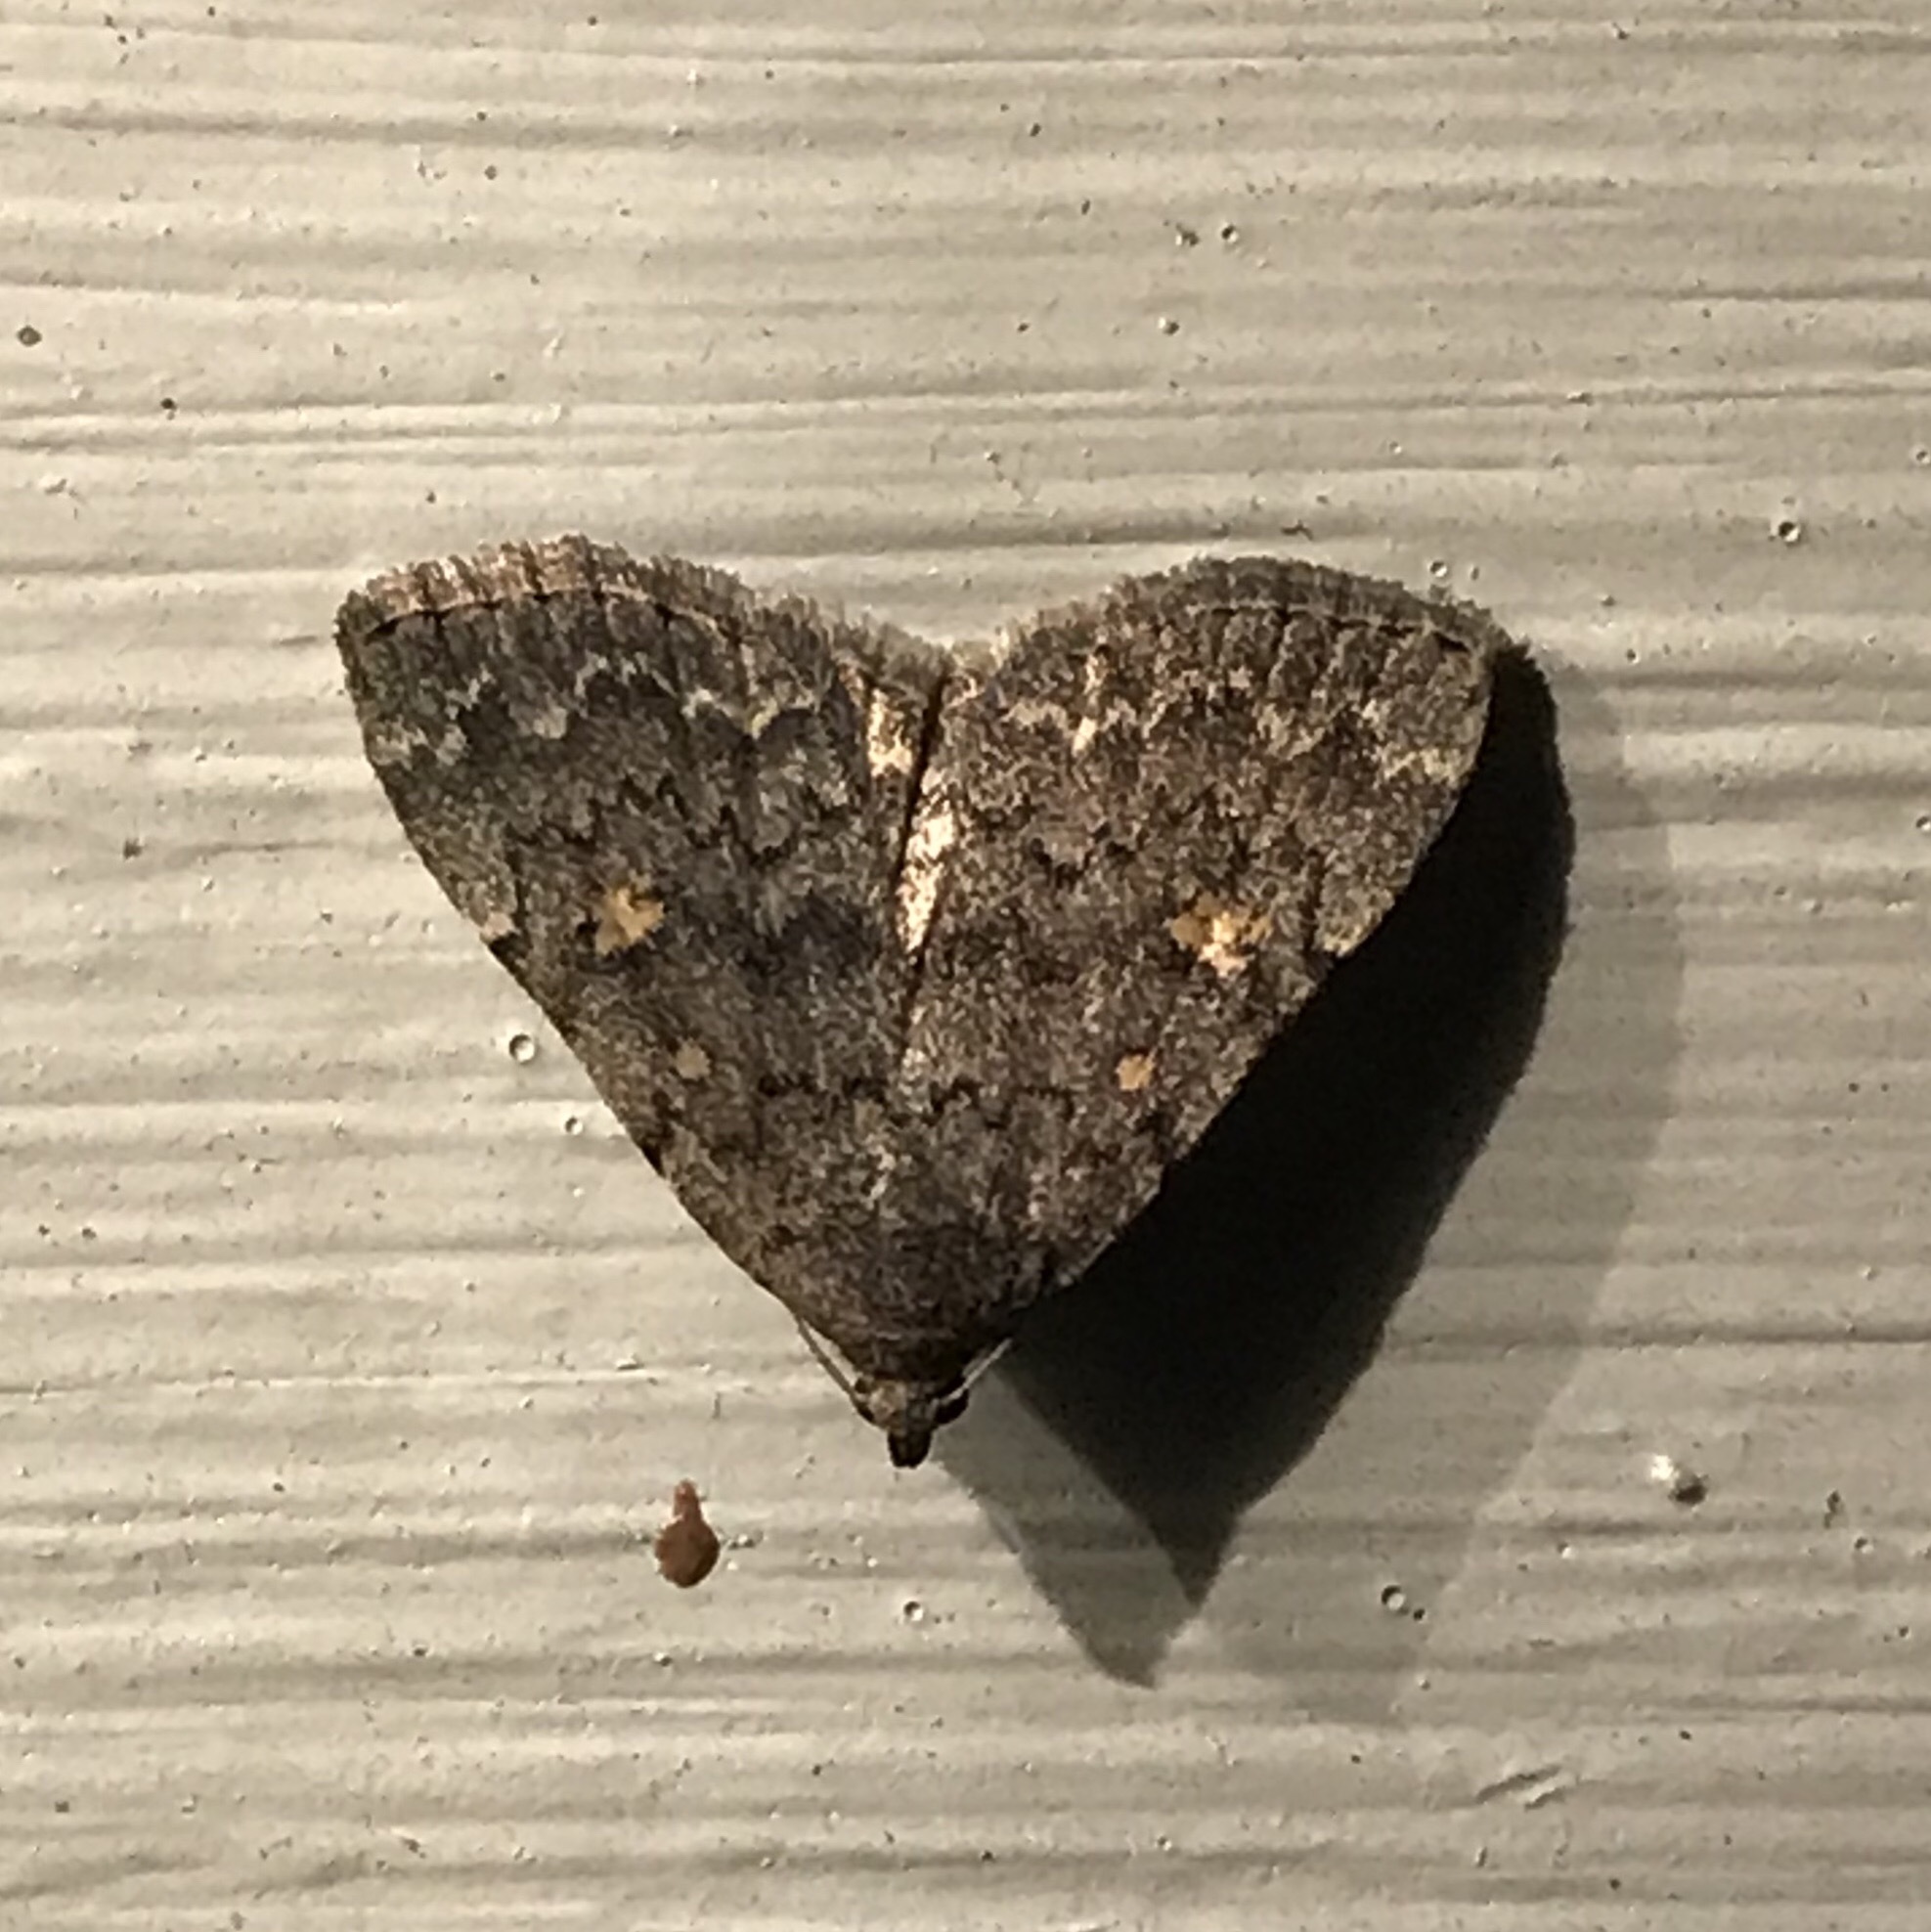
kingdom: Animalia
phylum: Arthropoda
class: Insecta
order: Lepidoptera
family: Erebidae
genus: Idia
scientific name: Idia aemula
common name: Common idia moth
